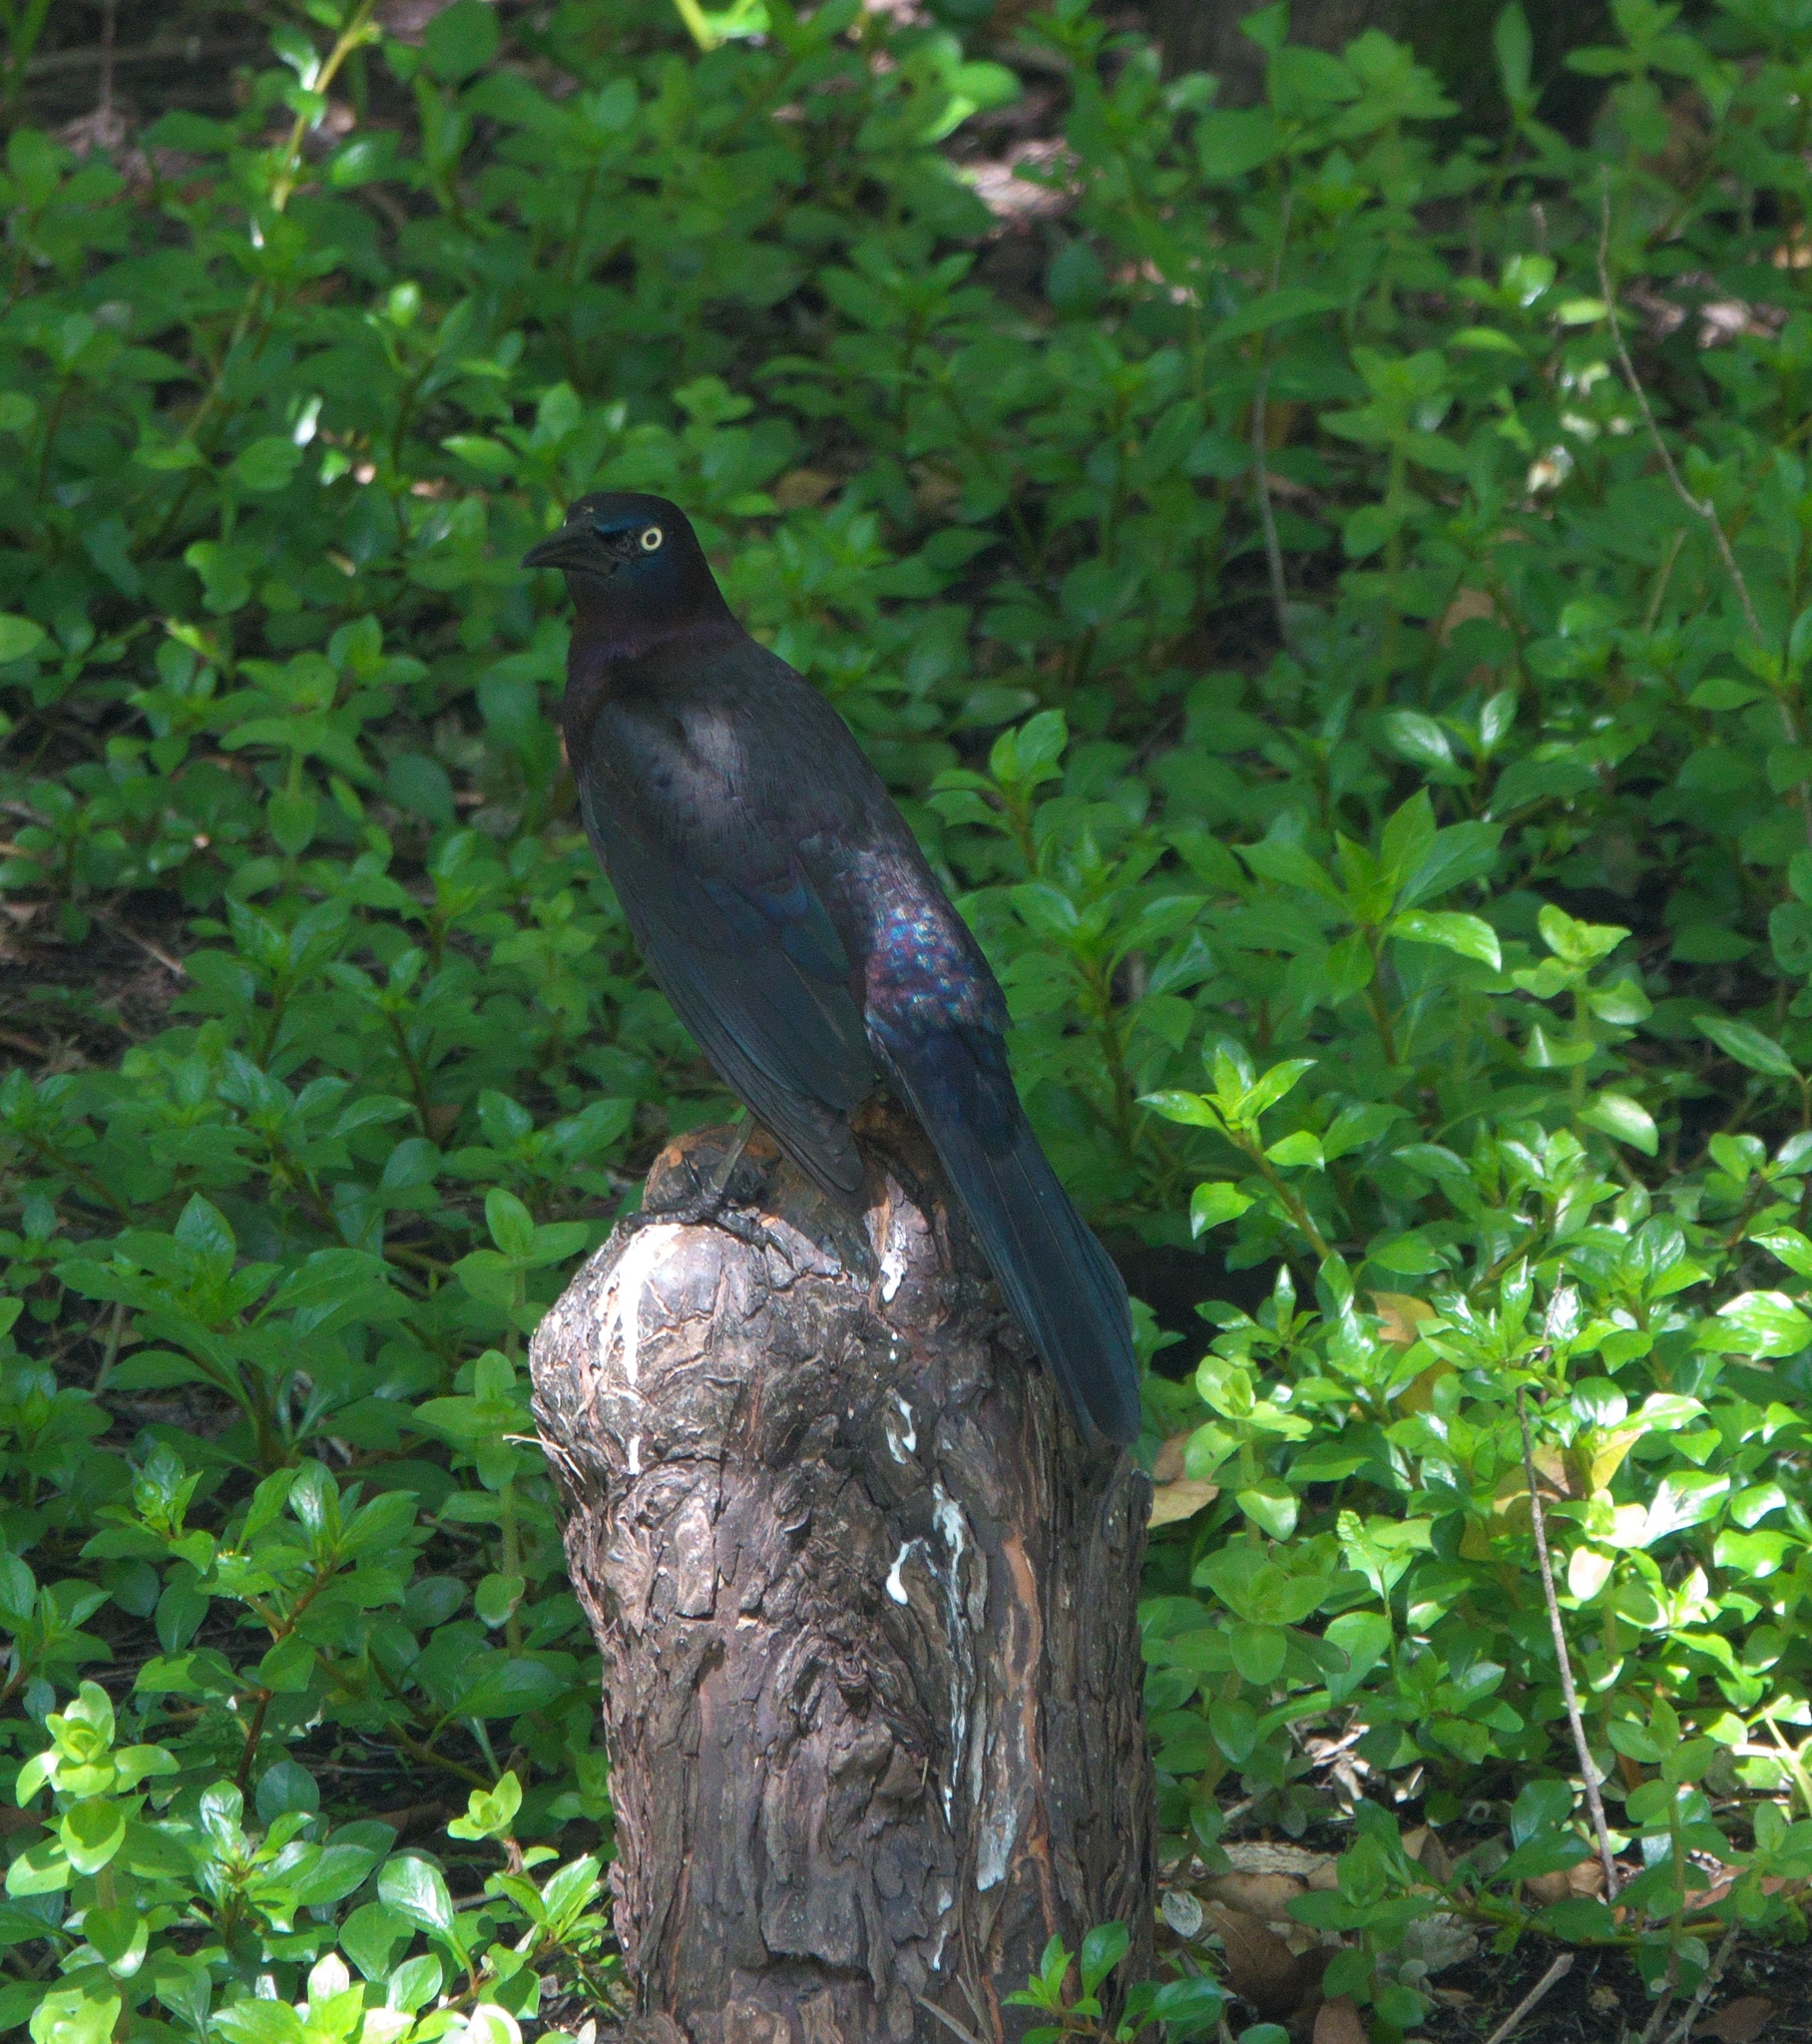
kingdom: Animalia
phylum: Chordata
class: Aves
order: Passeriformes
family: Icteridae
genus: Quiscalus
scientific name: Quiscalus quiscula
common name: Common grackle
